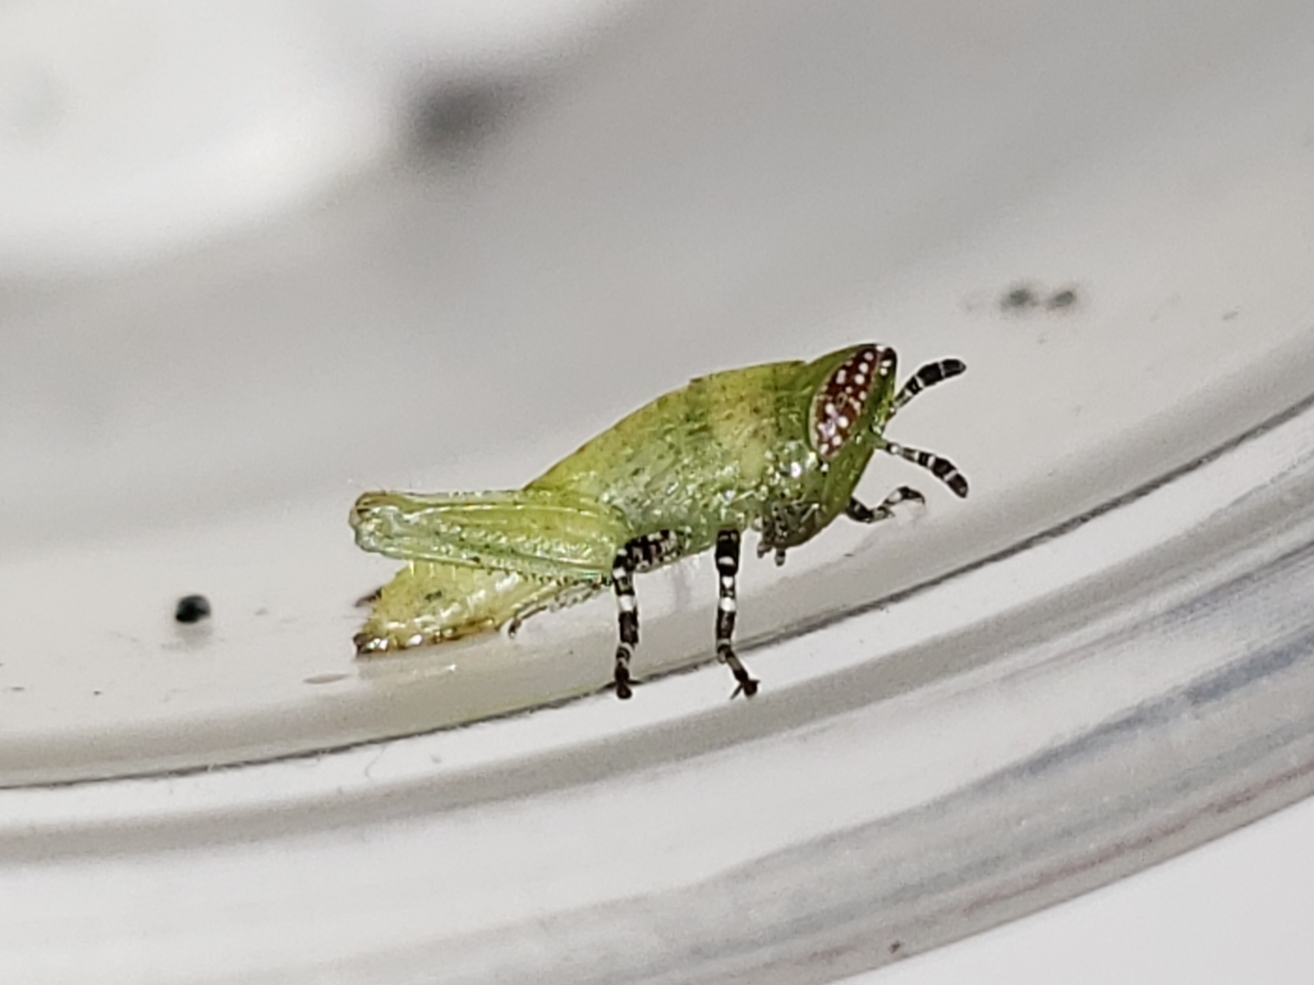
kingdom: Animalia
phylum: Arthropoda
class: Insecta
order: Orthoptera
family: Acrididae
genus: Aptenopedes
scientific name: Aptenopedes sphenarioides
